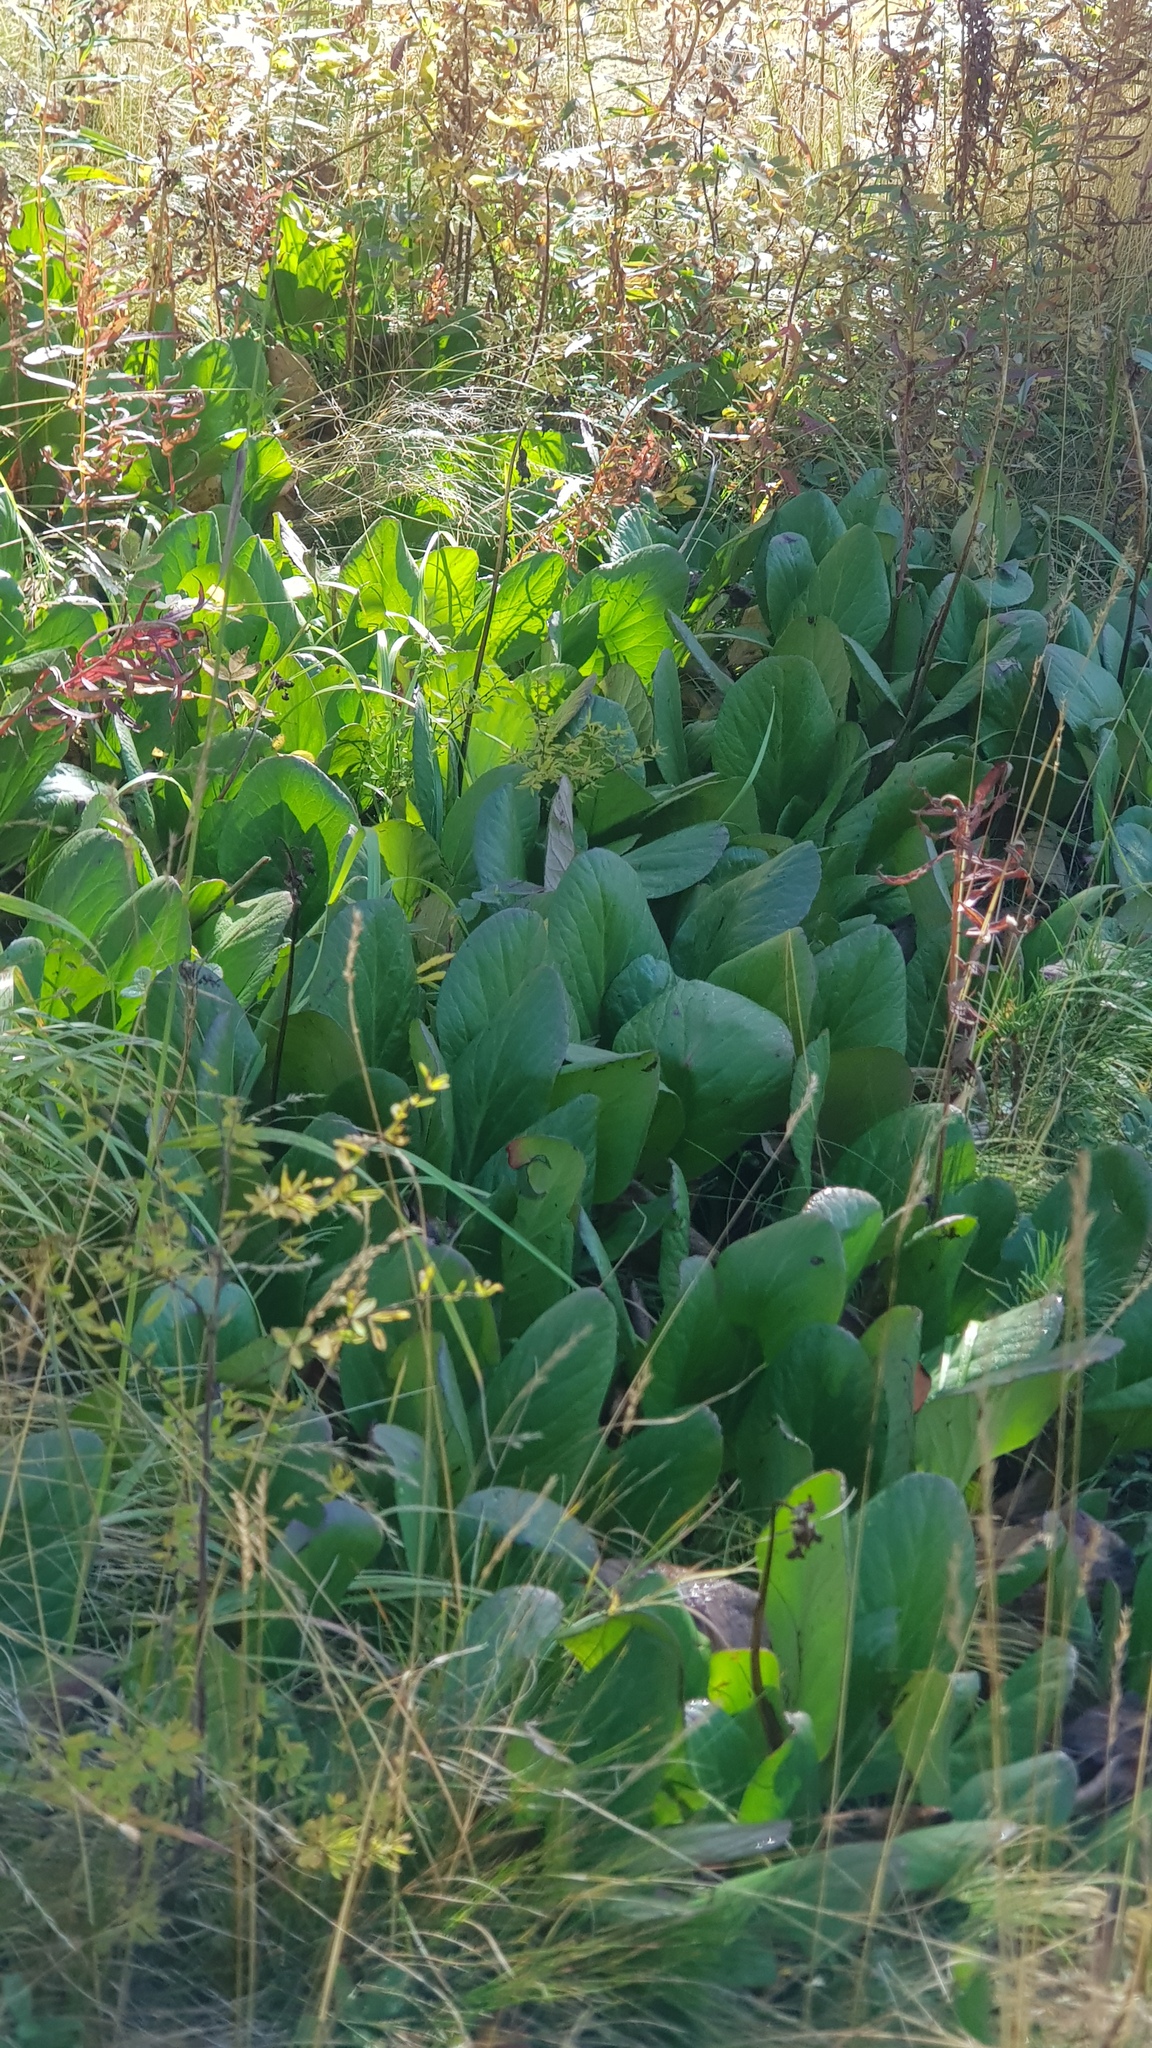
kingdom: Plantae
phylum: Tracheophyta
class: Magnoliopsida
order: Saxifragales
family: Saxifragaceae
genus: Bergenia
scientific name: Bergenia crassifolia
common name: Elephant-ears
